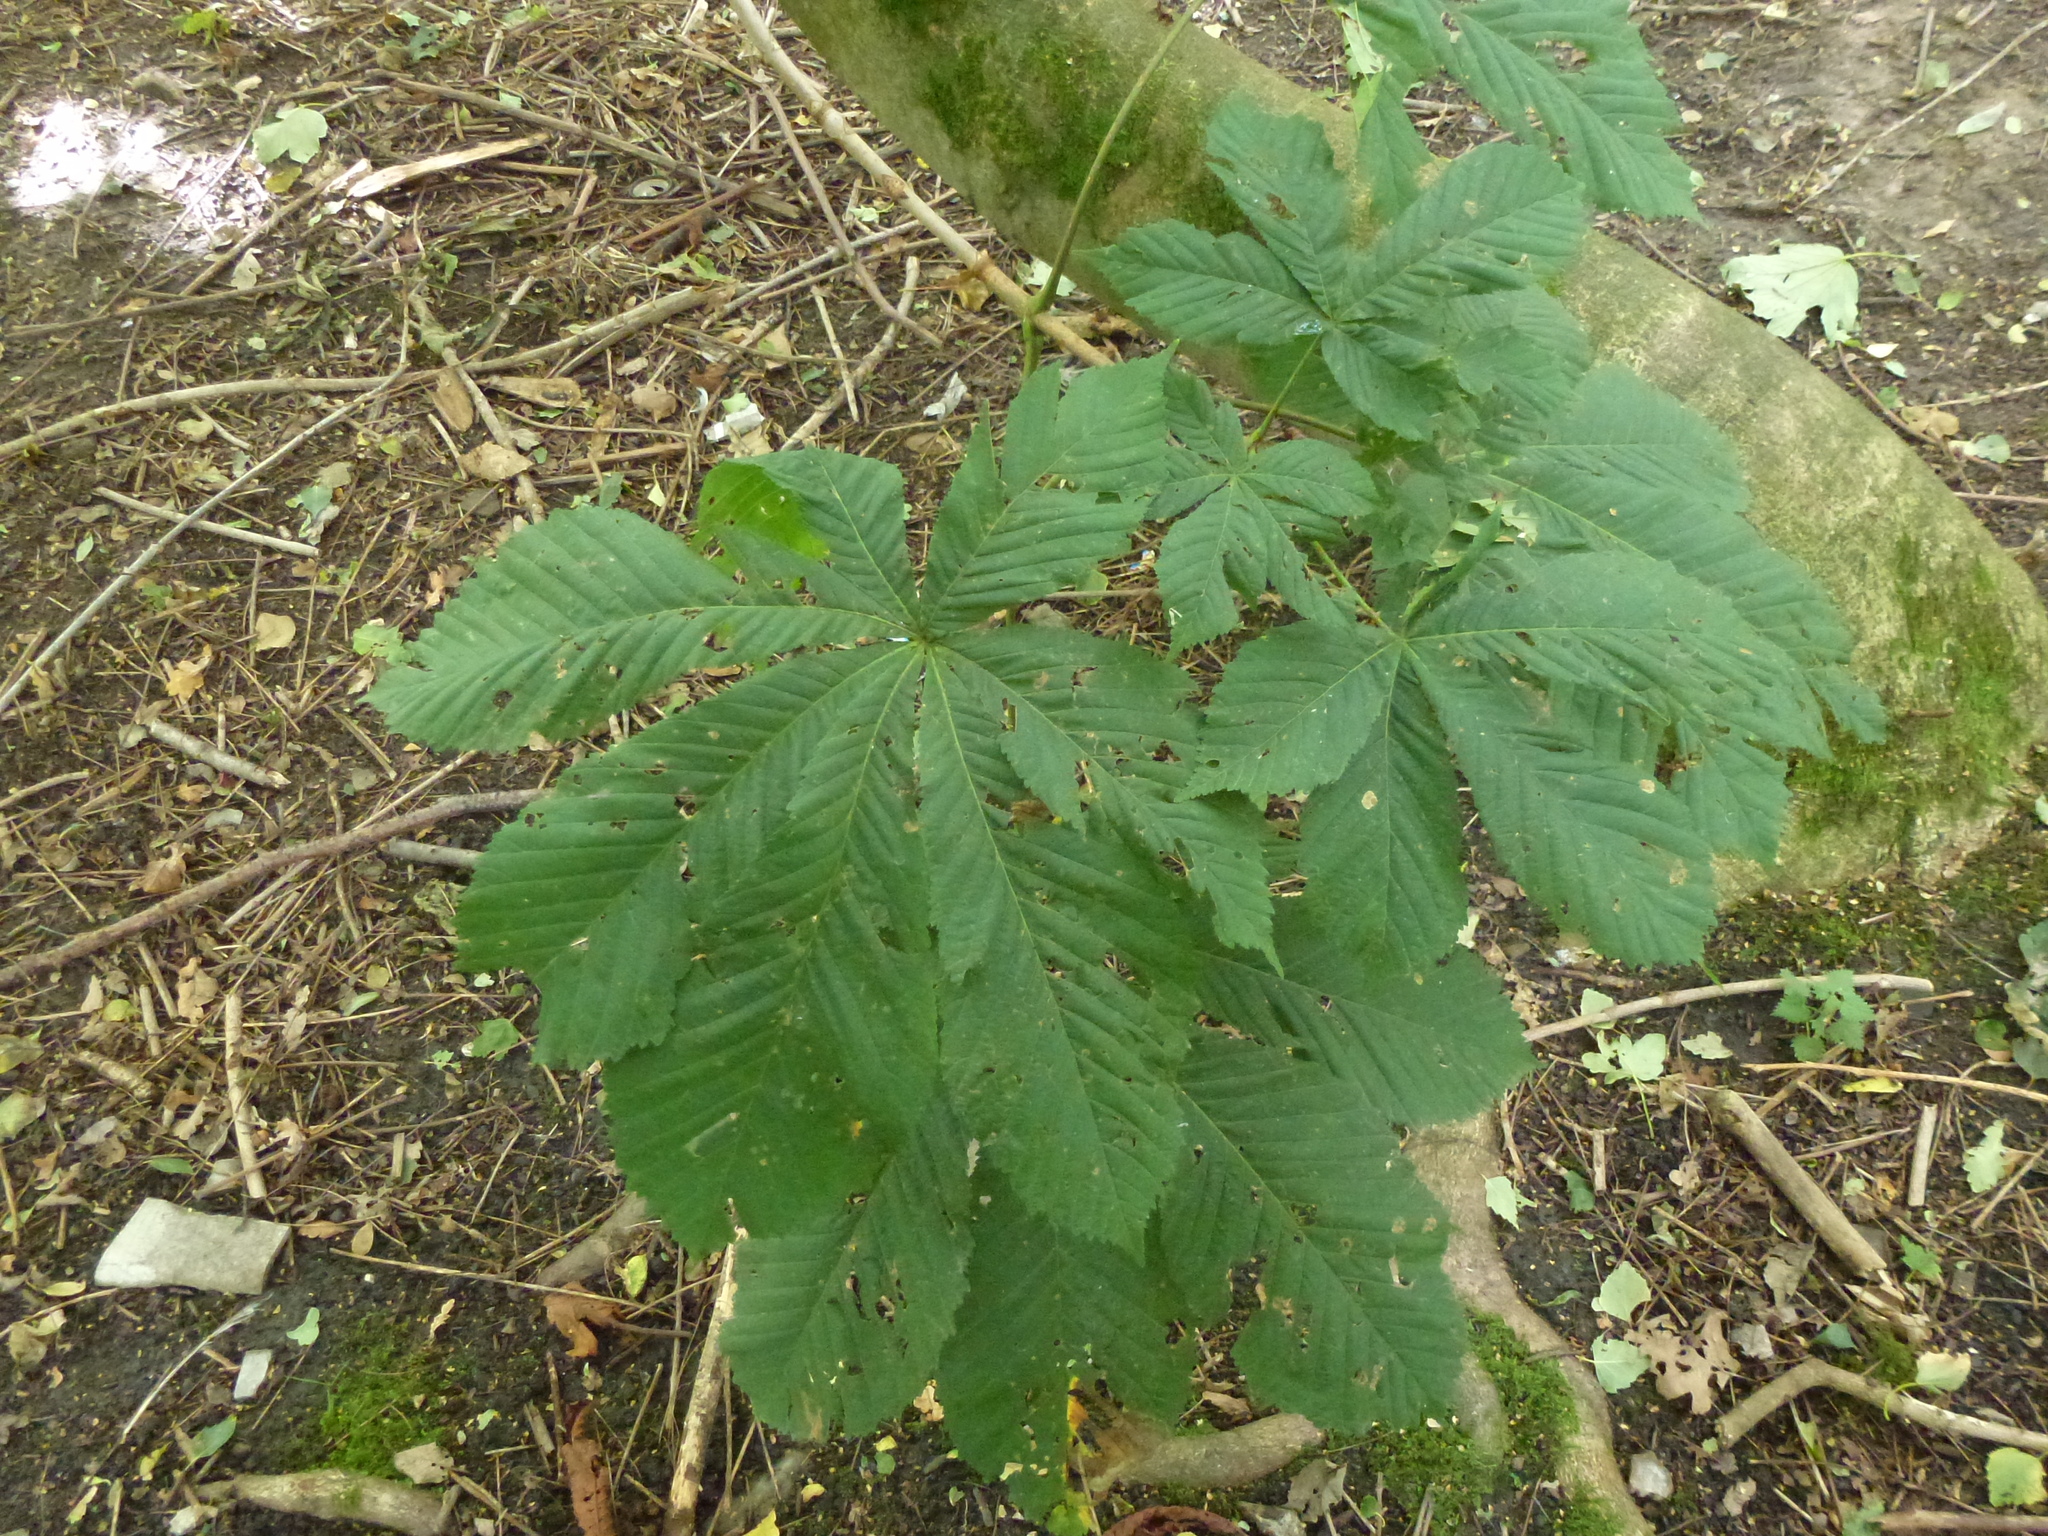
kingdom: Plantae
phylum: Tracheophyta
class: Magnoliopsida
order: Sapindales
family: Sapindaceae
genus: Aesculus
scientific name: Aesculus hippocastanum
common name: Horse-chestnut
